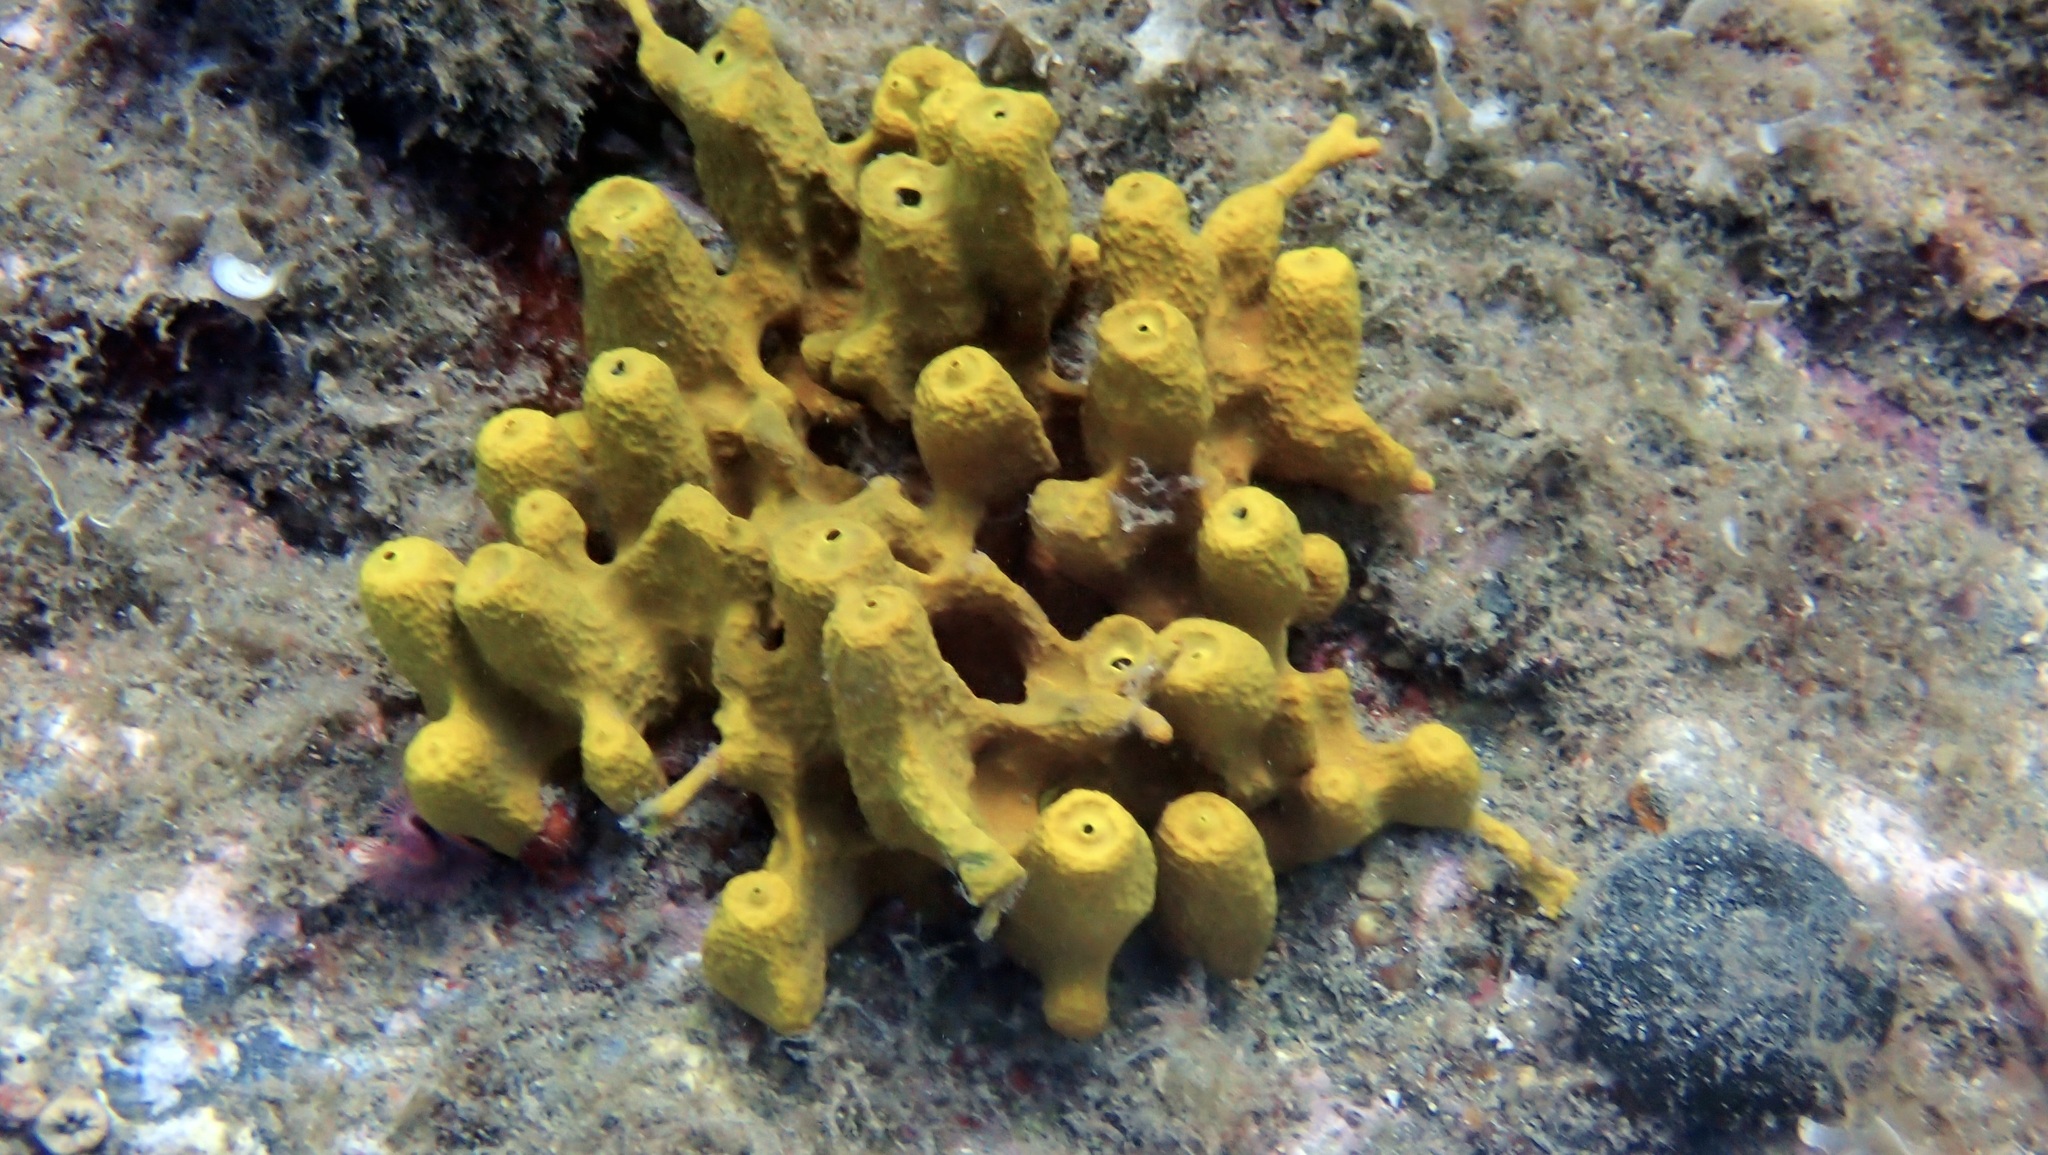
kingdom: Animalia
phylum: Porifera
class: Demospongiae
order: Verongiida
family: Aplysinidae
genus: Aplysina
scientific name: Aplysina aerophoba
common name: Aureate sponge
